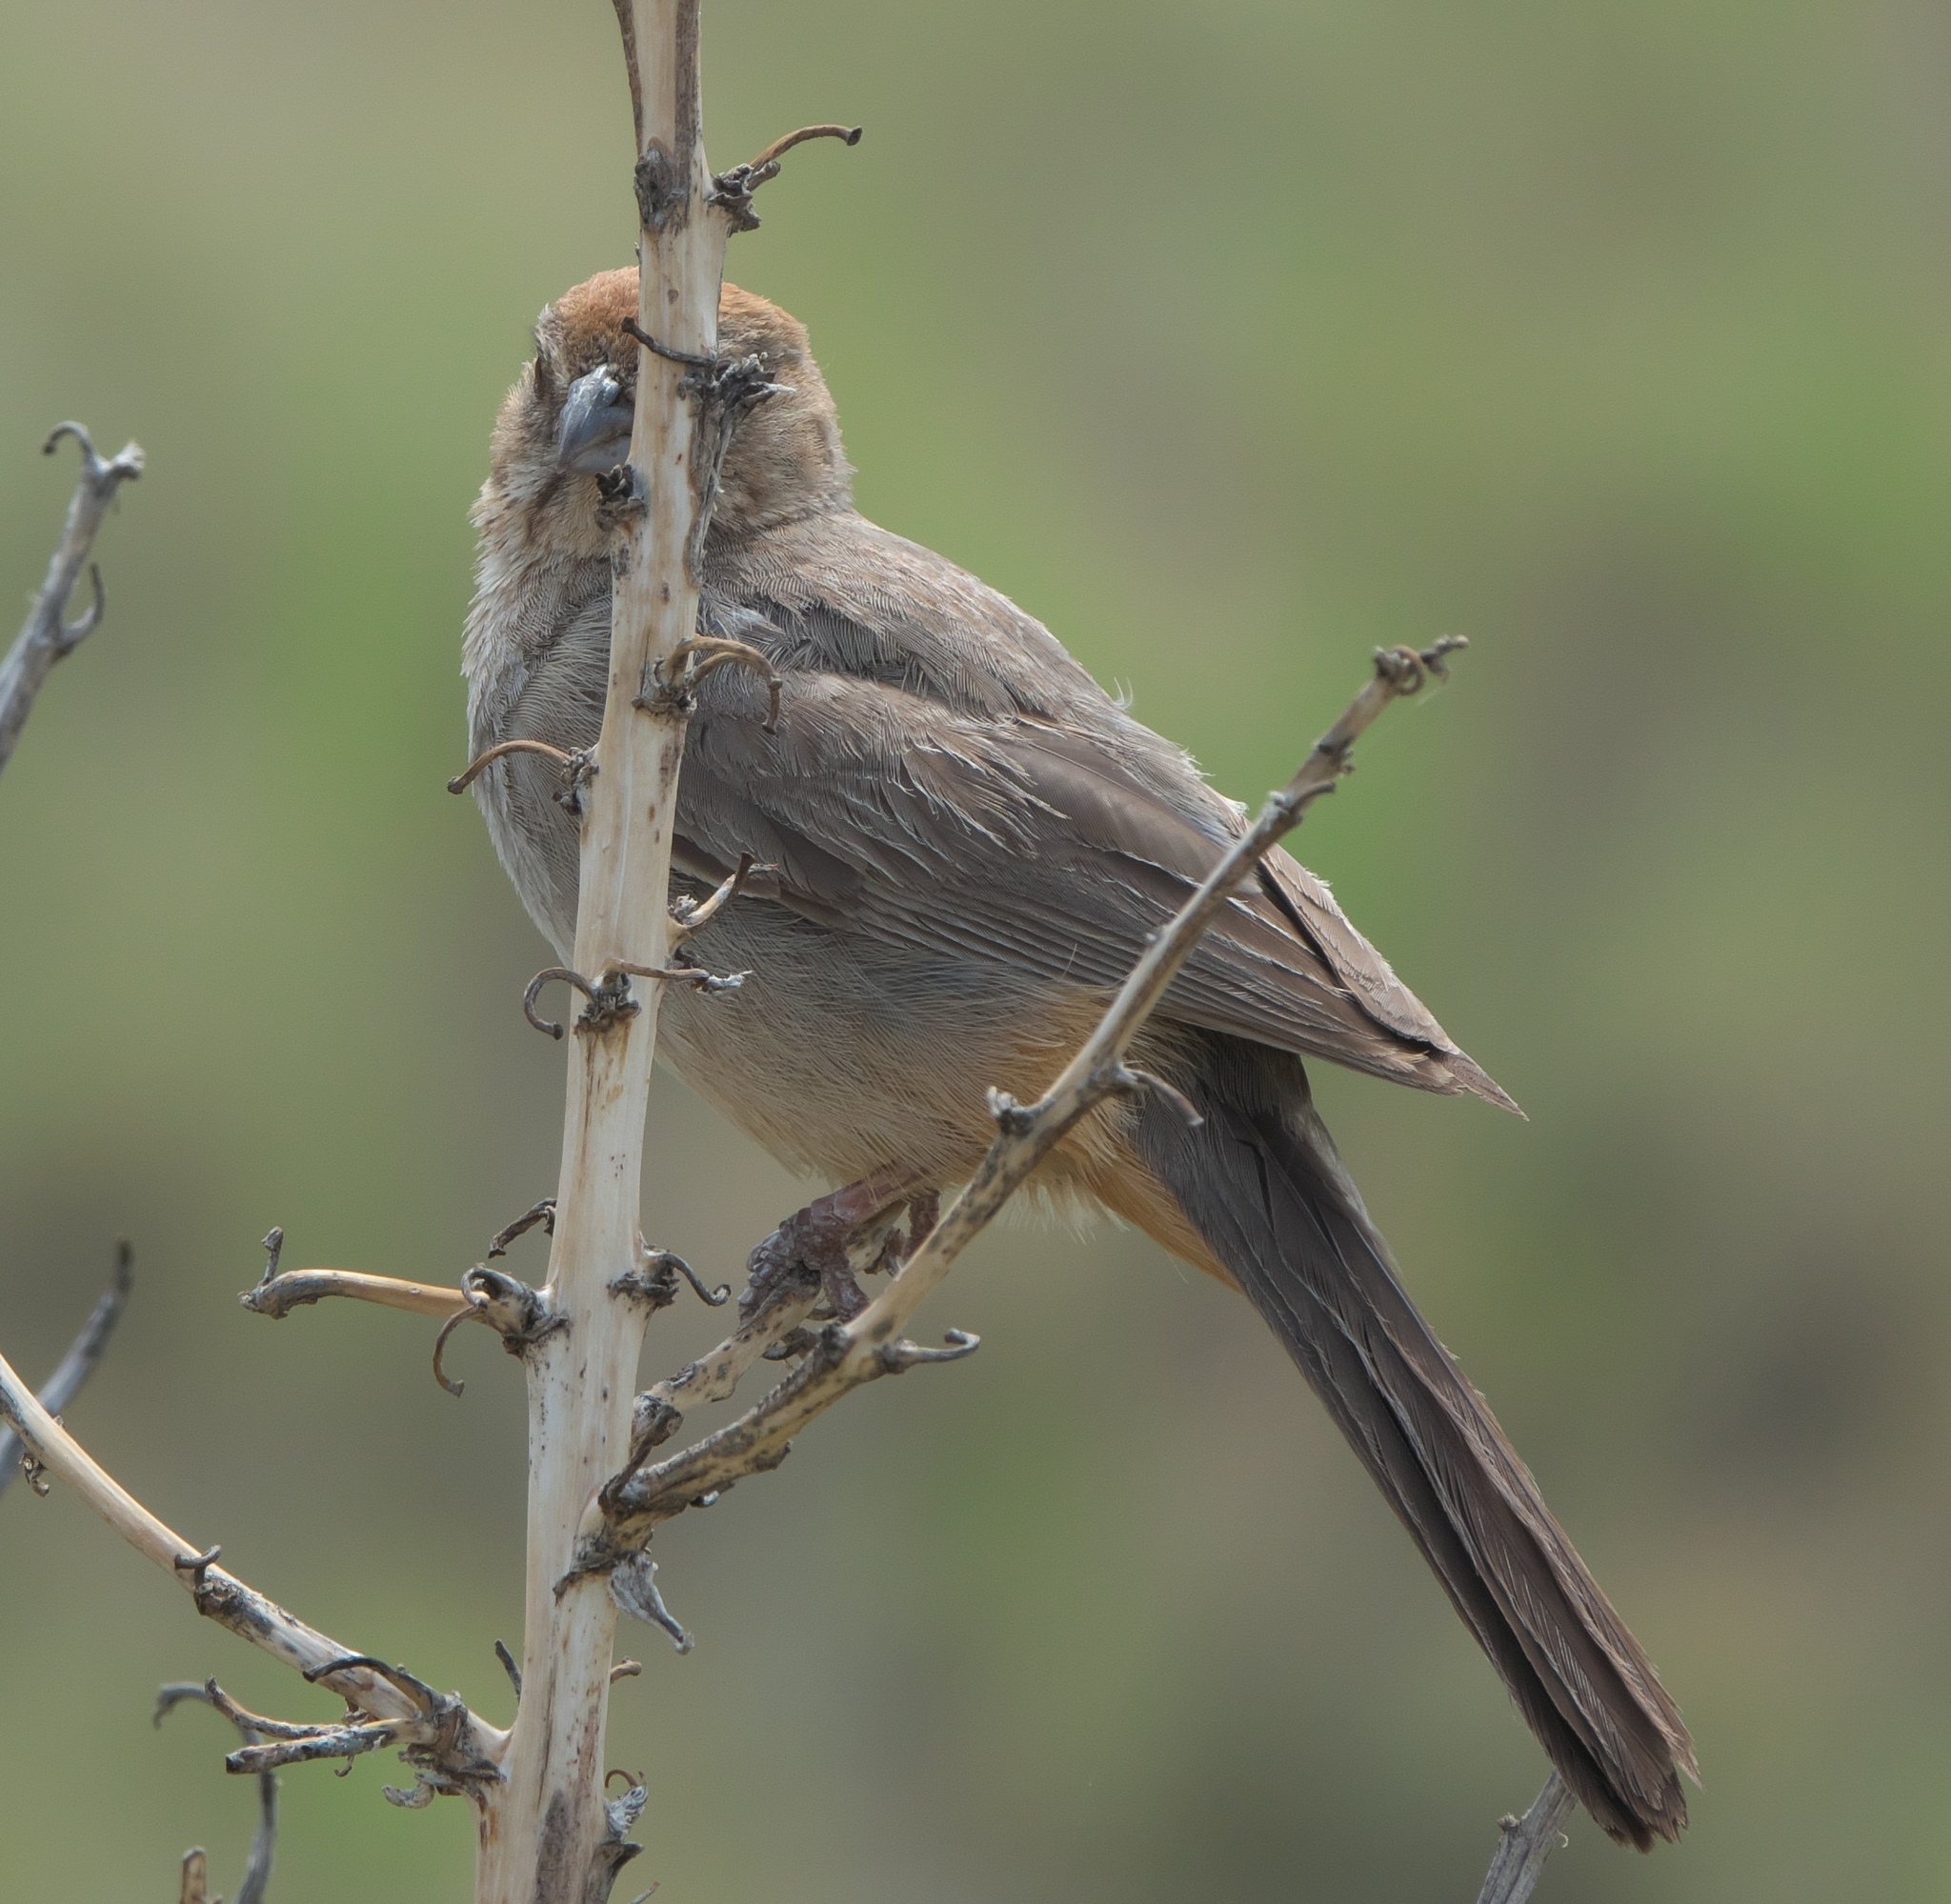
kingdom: Animalia
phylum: Chordata
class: Aves
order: Passeriformes
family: Passerellidae
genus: Melozone
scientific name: Melozone fusca
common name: Canyon towhee
